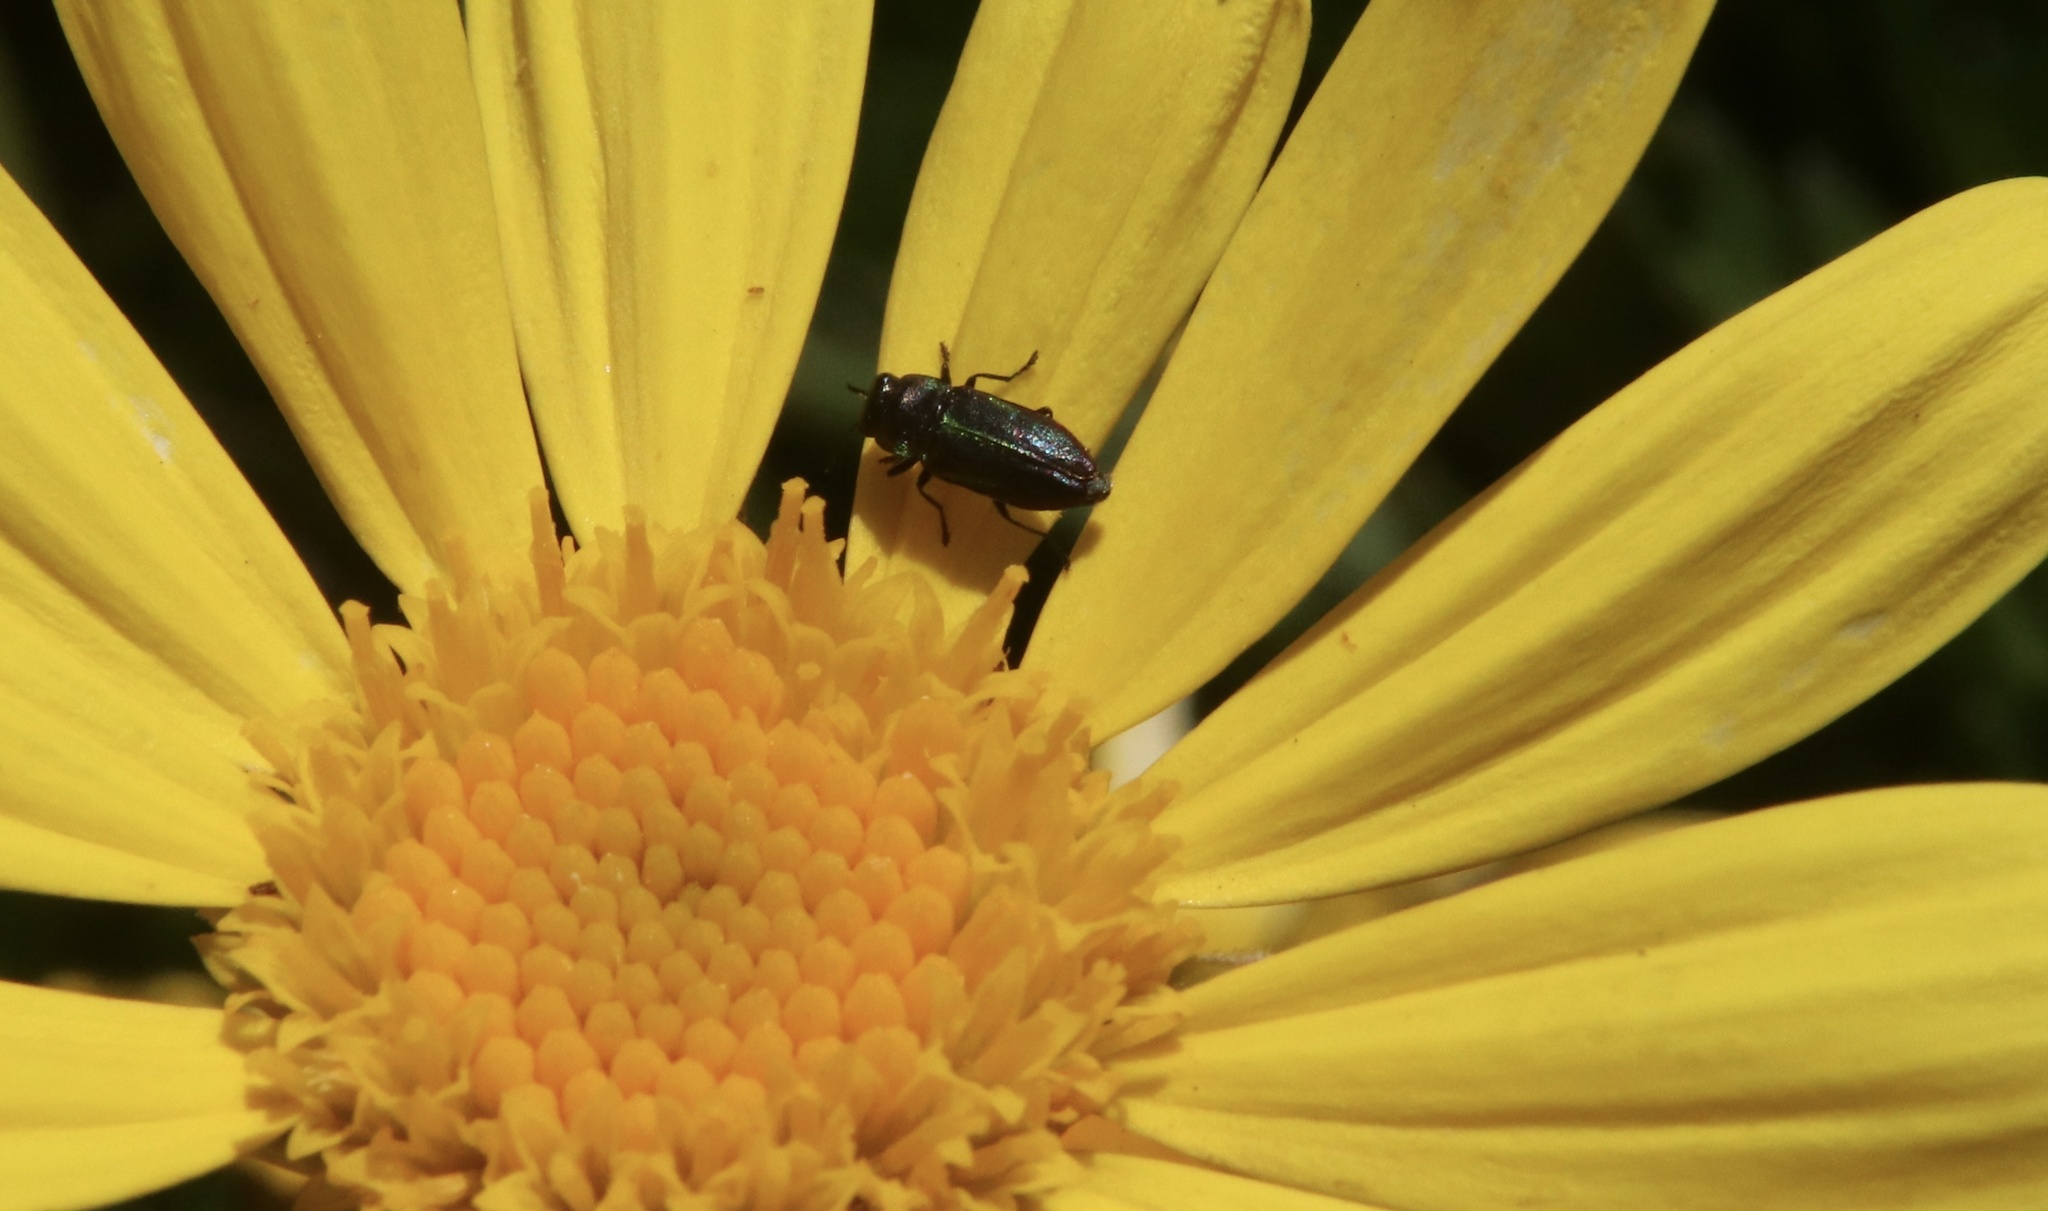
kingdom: Animalia
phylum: Arthropoda
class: Insecta
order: Coleoptera
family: Buprestidae
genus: Bilyaxia
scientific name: Bilyaxia concinna
